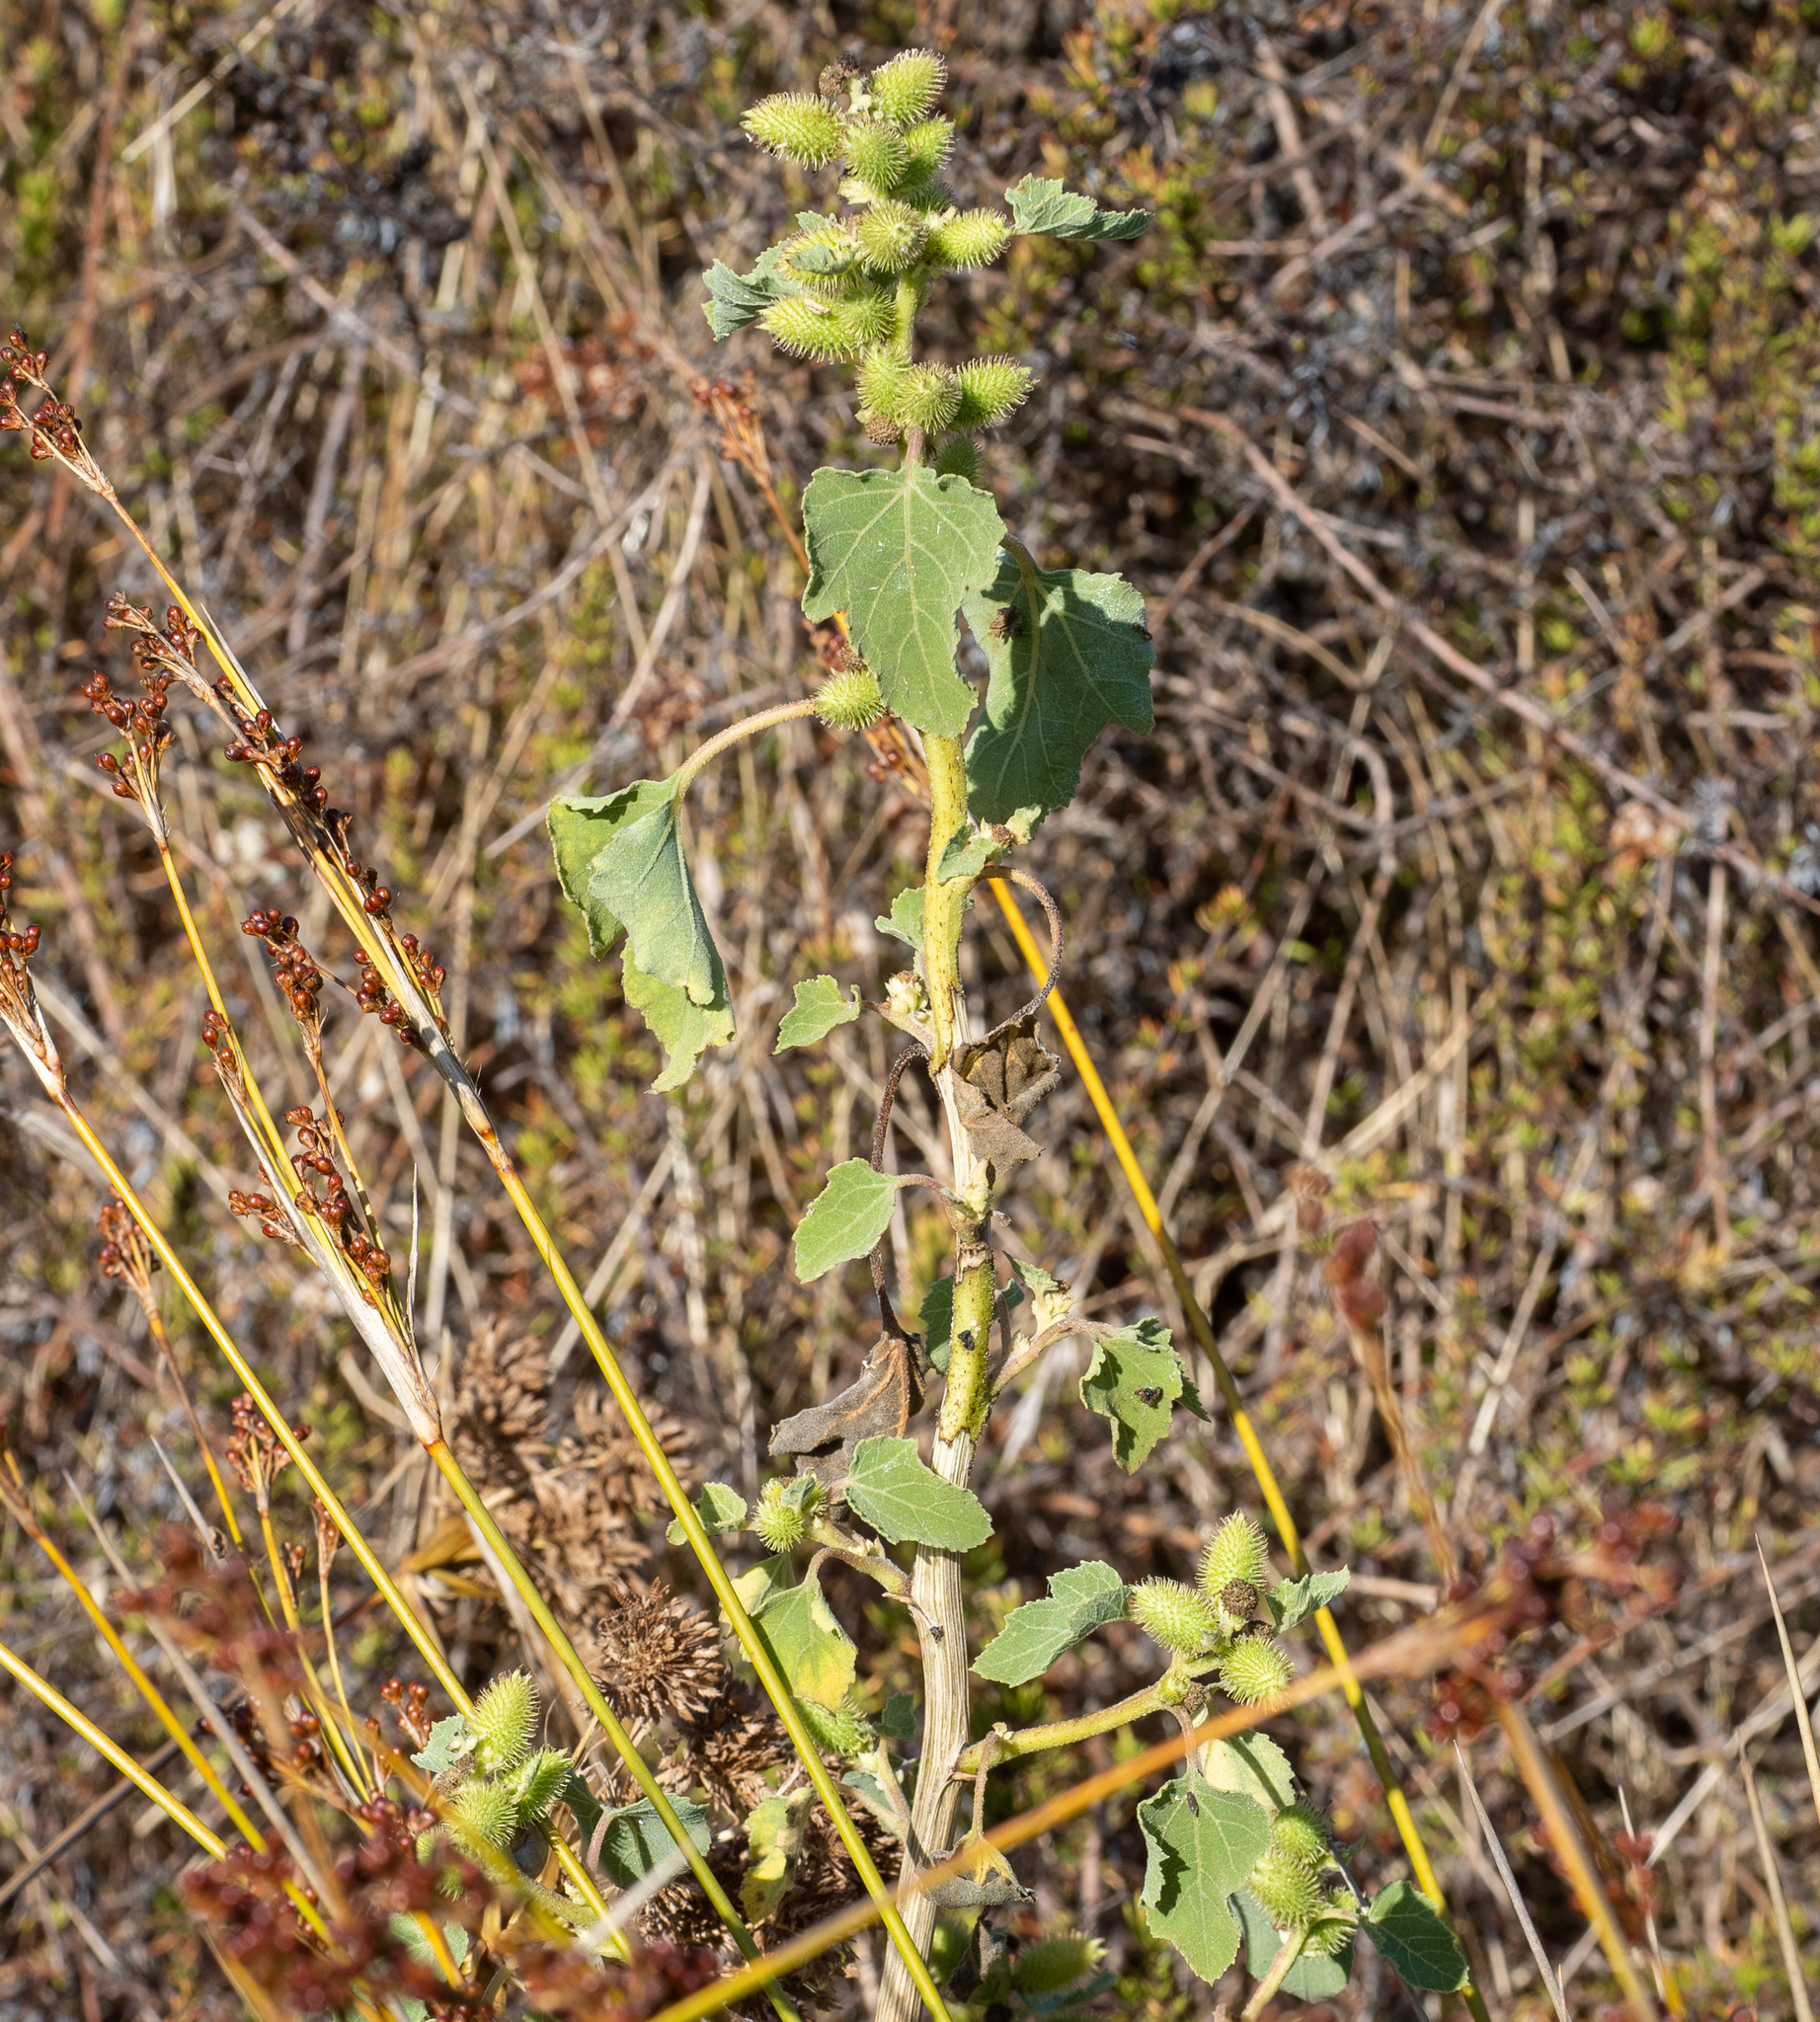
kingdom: Plantae
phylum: Tracheophyta
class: Magnoliopsida
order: Asterales
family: Asteraceae
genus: Xanthium
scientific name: Xanthium strumarium
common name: Rough cocklebur
